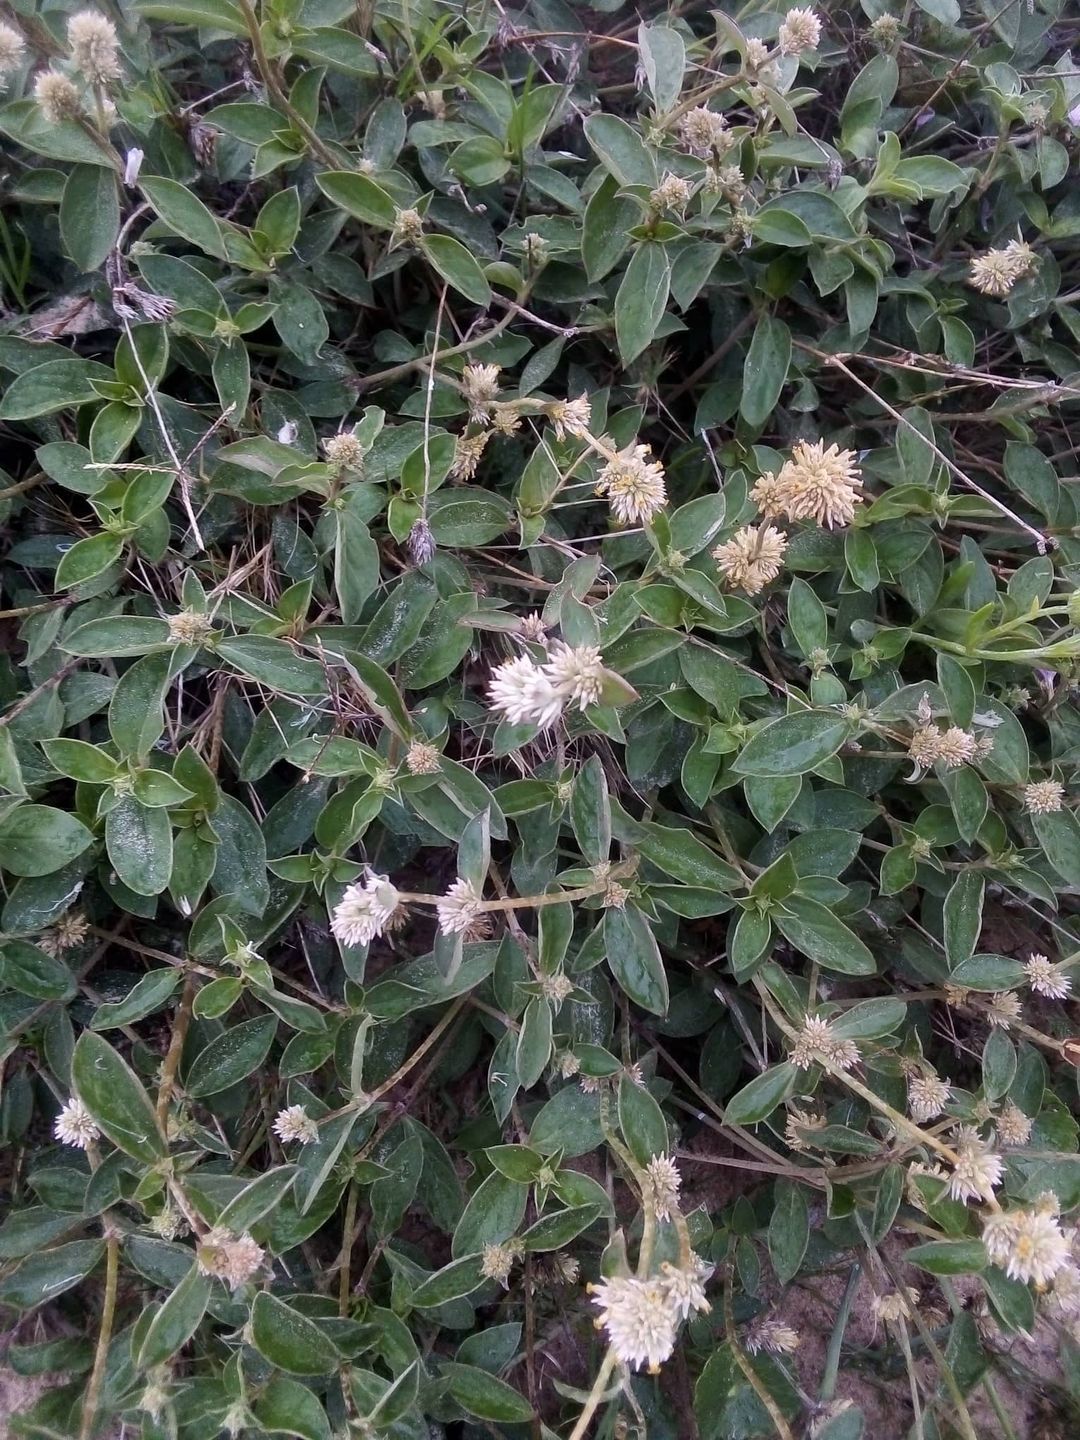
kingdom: Plantae
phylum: Tracheophyta
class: Magnoliopsida
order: Caryophyllales
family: Amaranthaceae
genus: Gomphrena
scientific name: Gomphrena perennis
